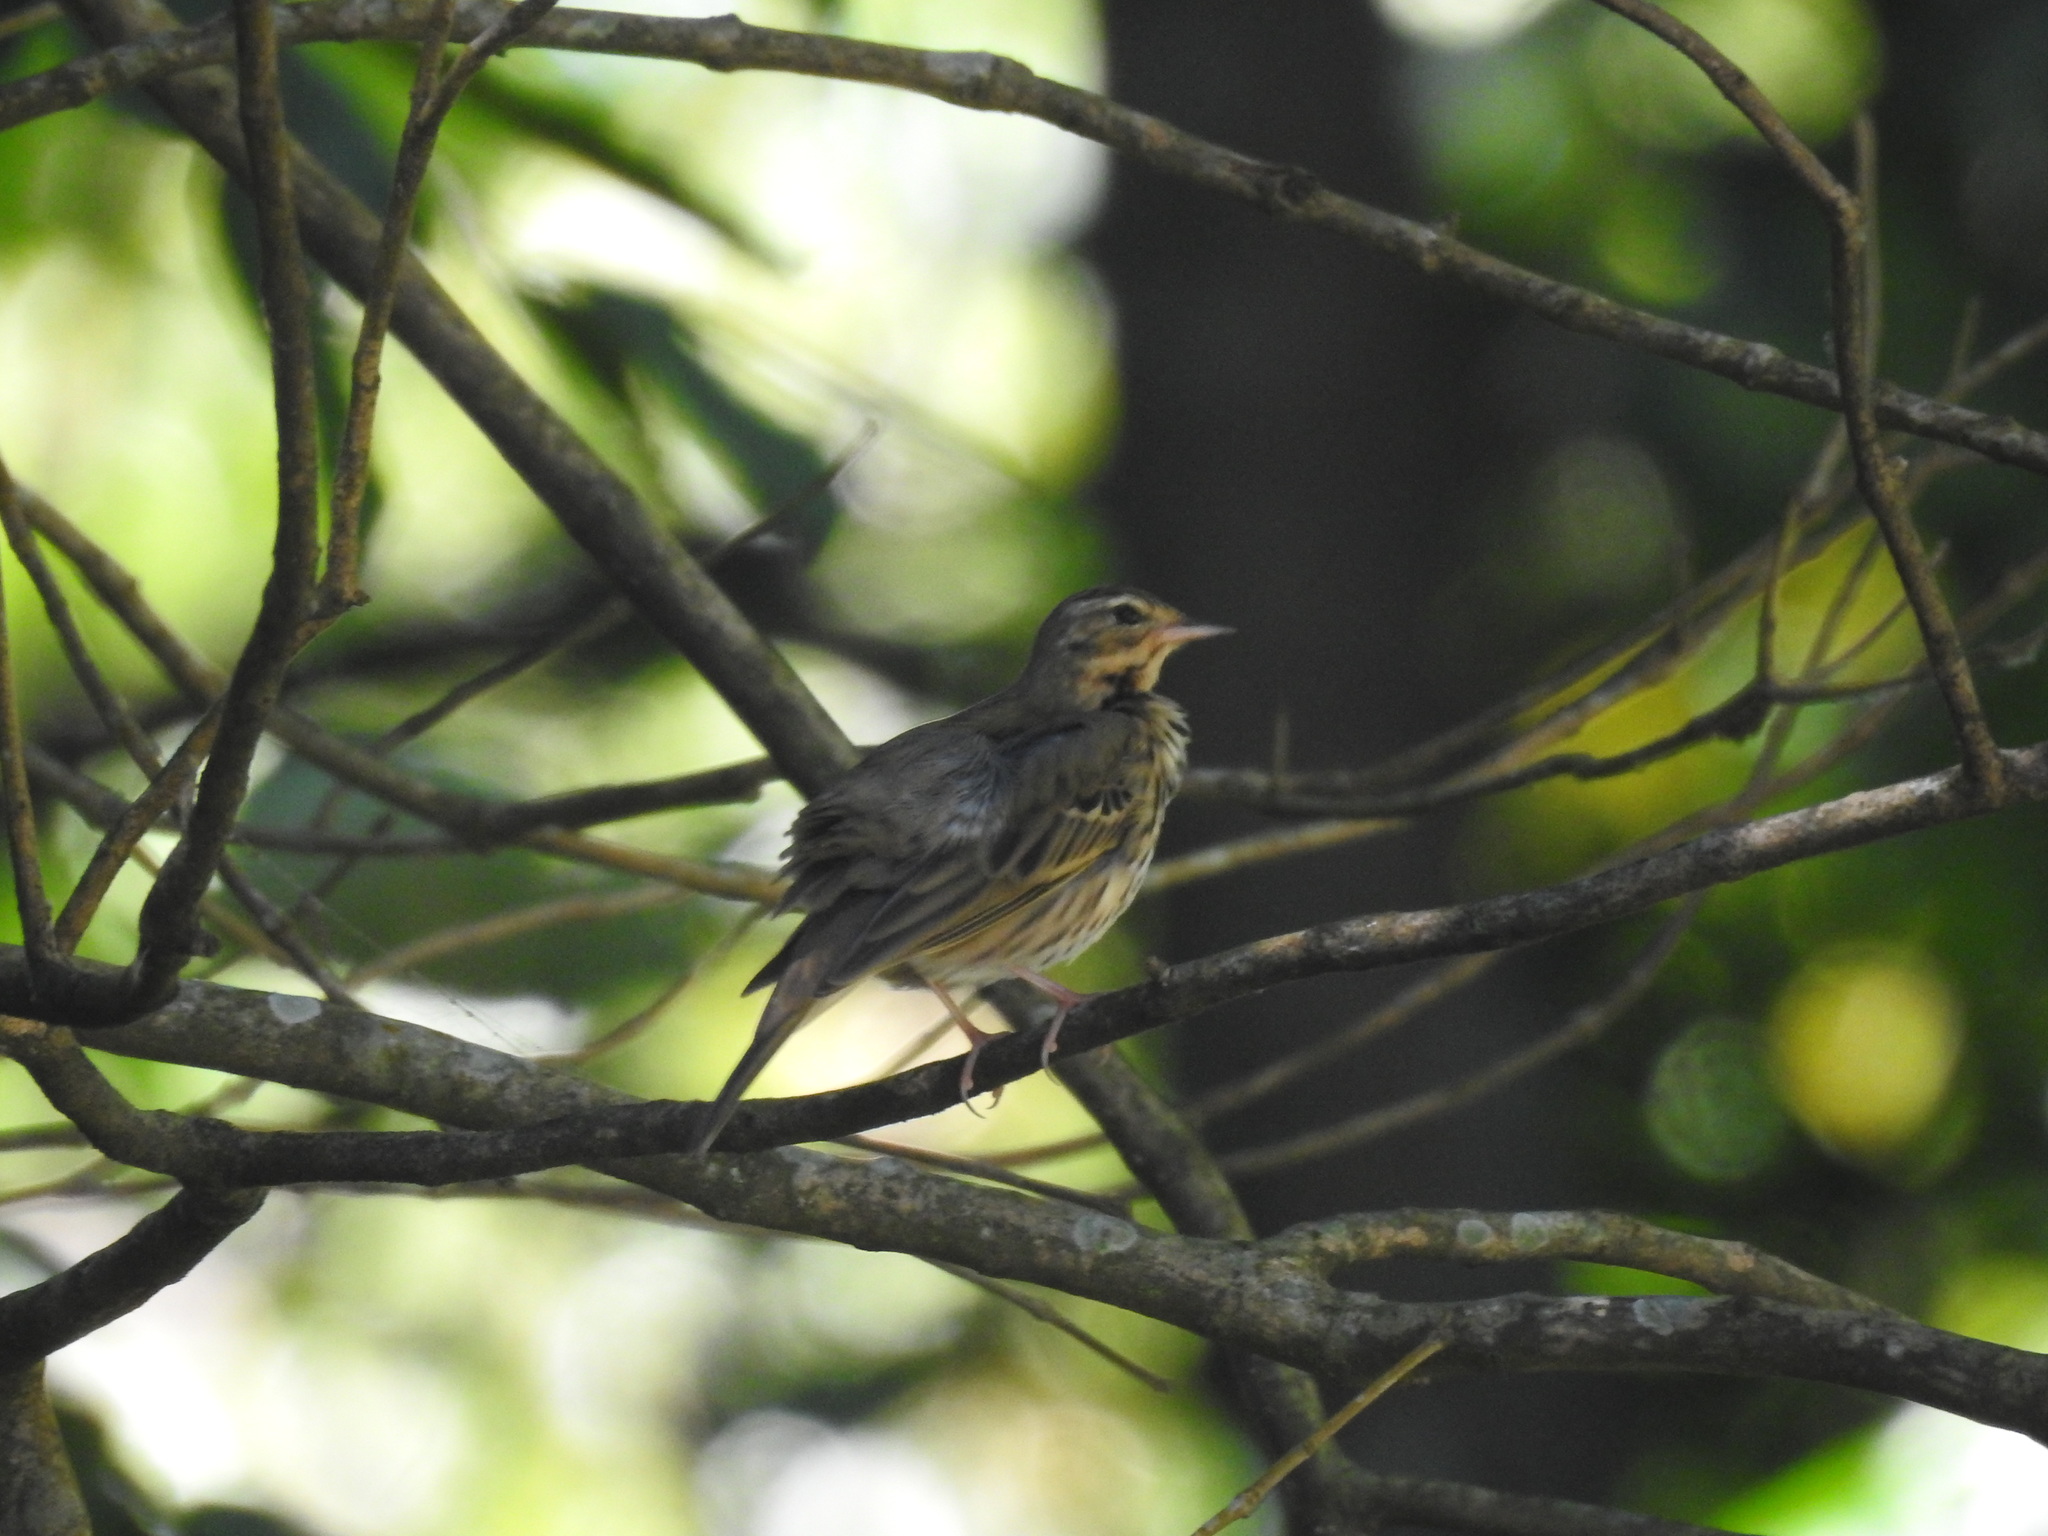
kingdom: Animalia
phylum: Chordata
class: Aves
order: Passeriformes
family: Motacillidae
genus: Anthus
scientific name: Anthus hodgsoni
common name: Olive-backed pipit
